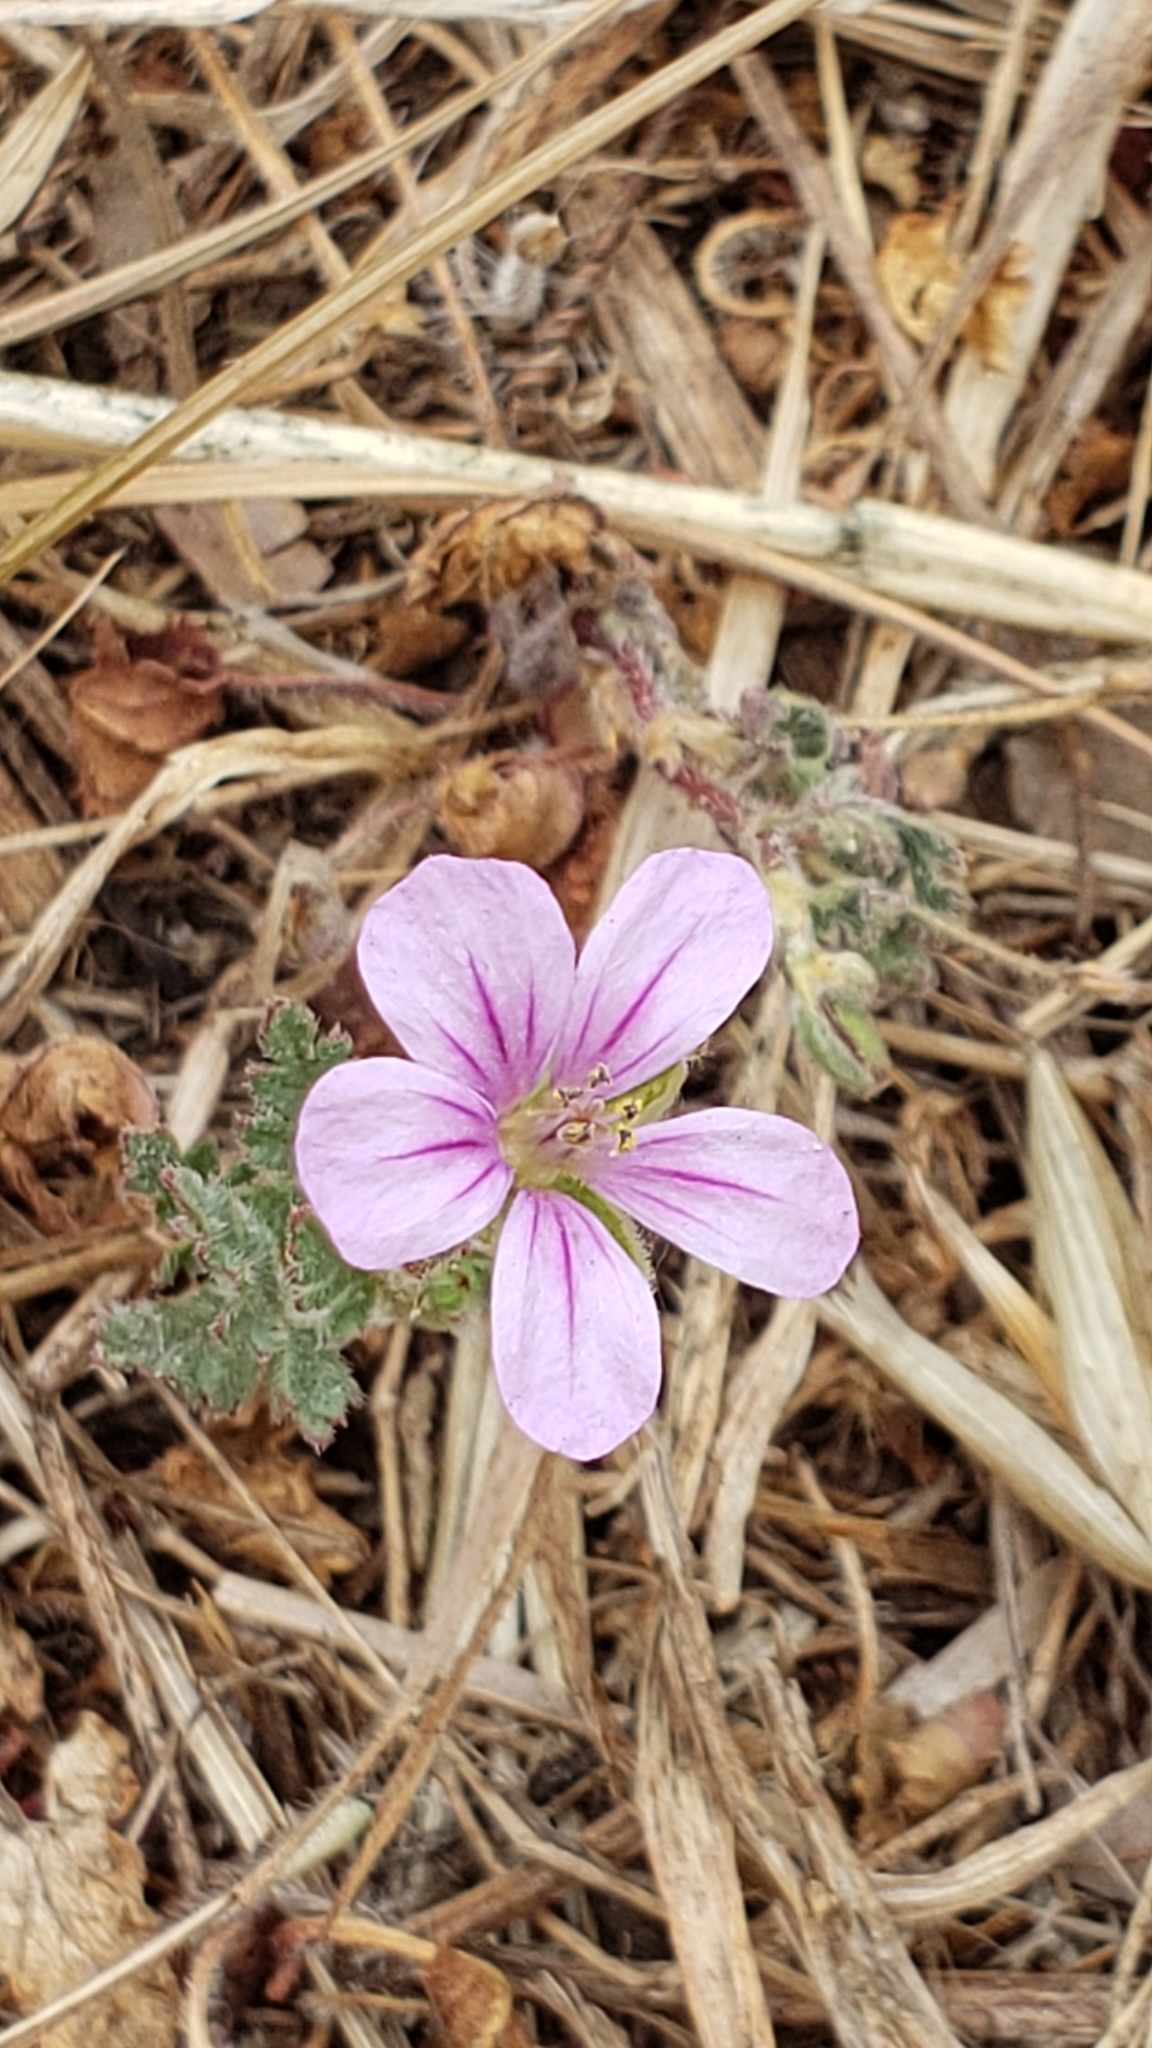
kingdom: Plantae
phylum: Tracheophyta
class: Magnoliopsida
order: Geraniales
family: Geraniaceae
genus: Erodium
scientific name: Erodium botrys
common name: Mediterranean stork's-bill
